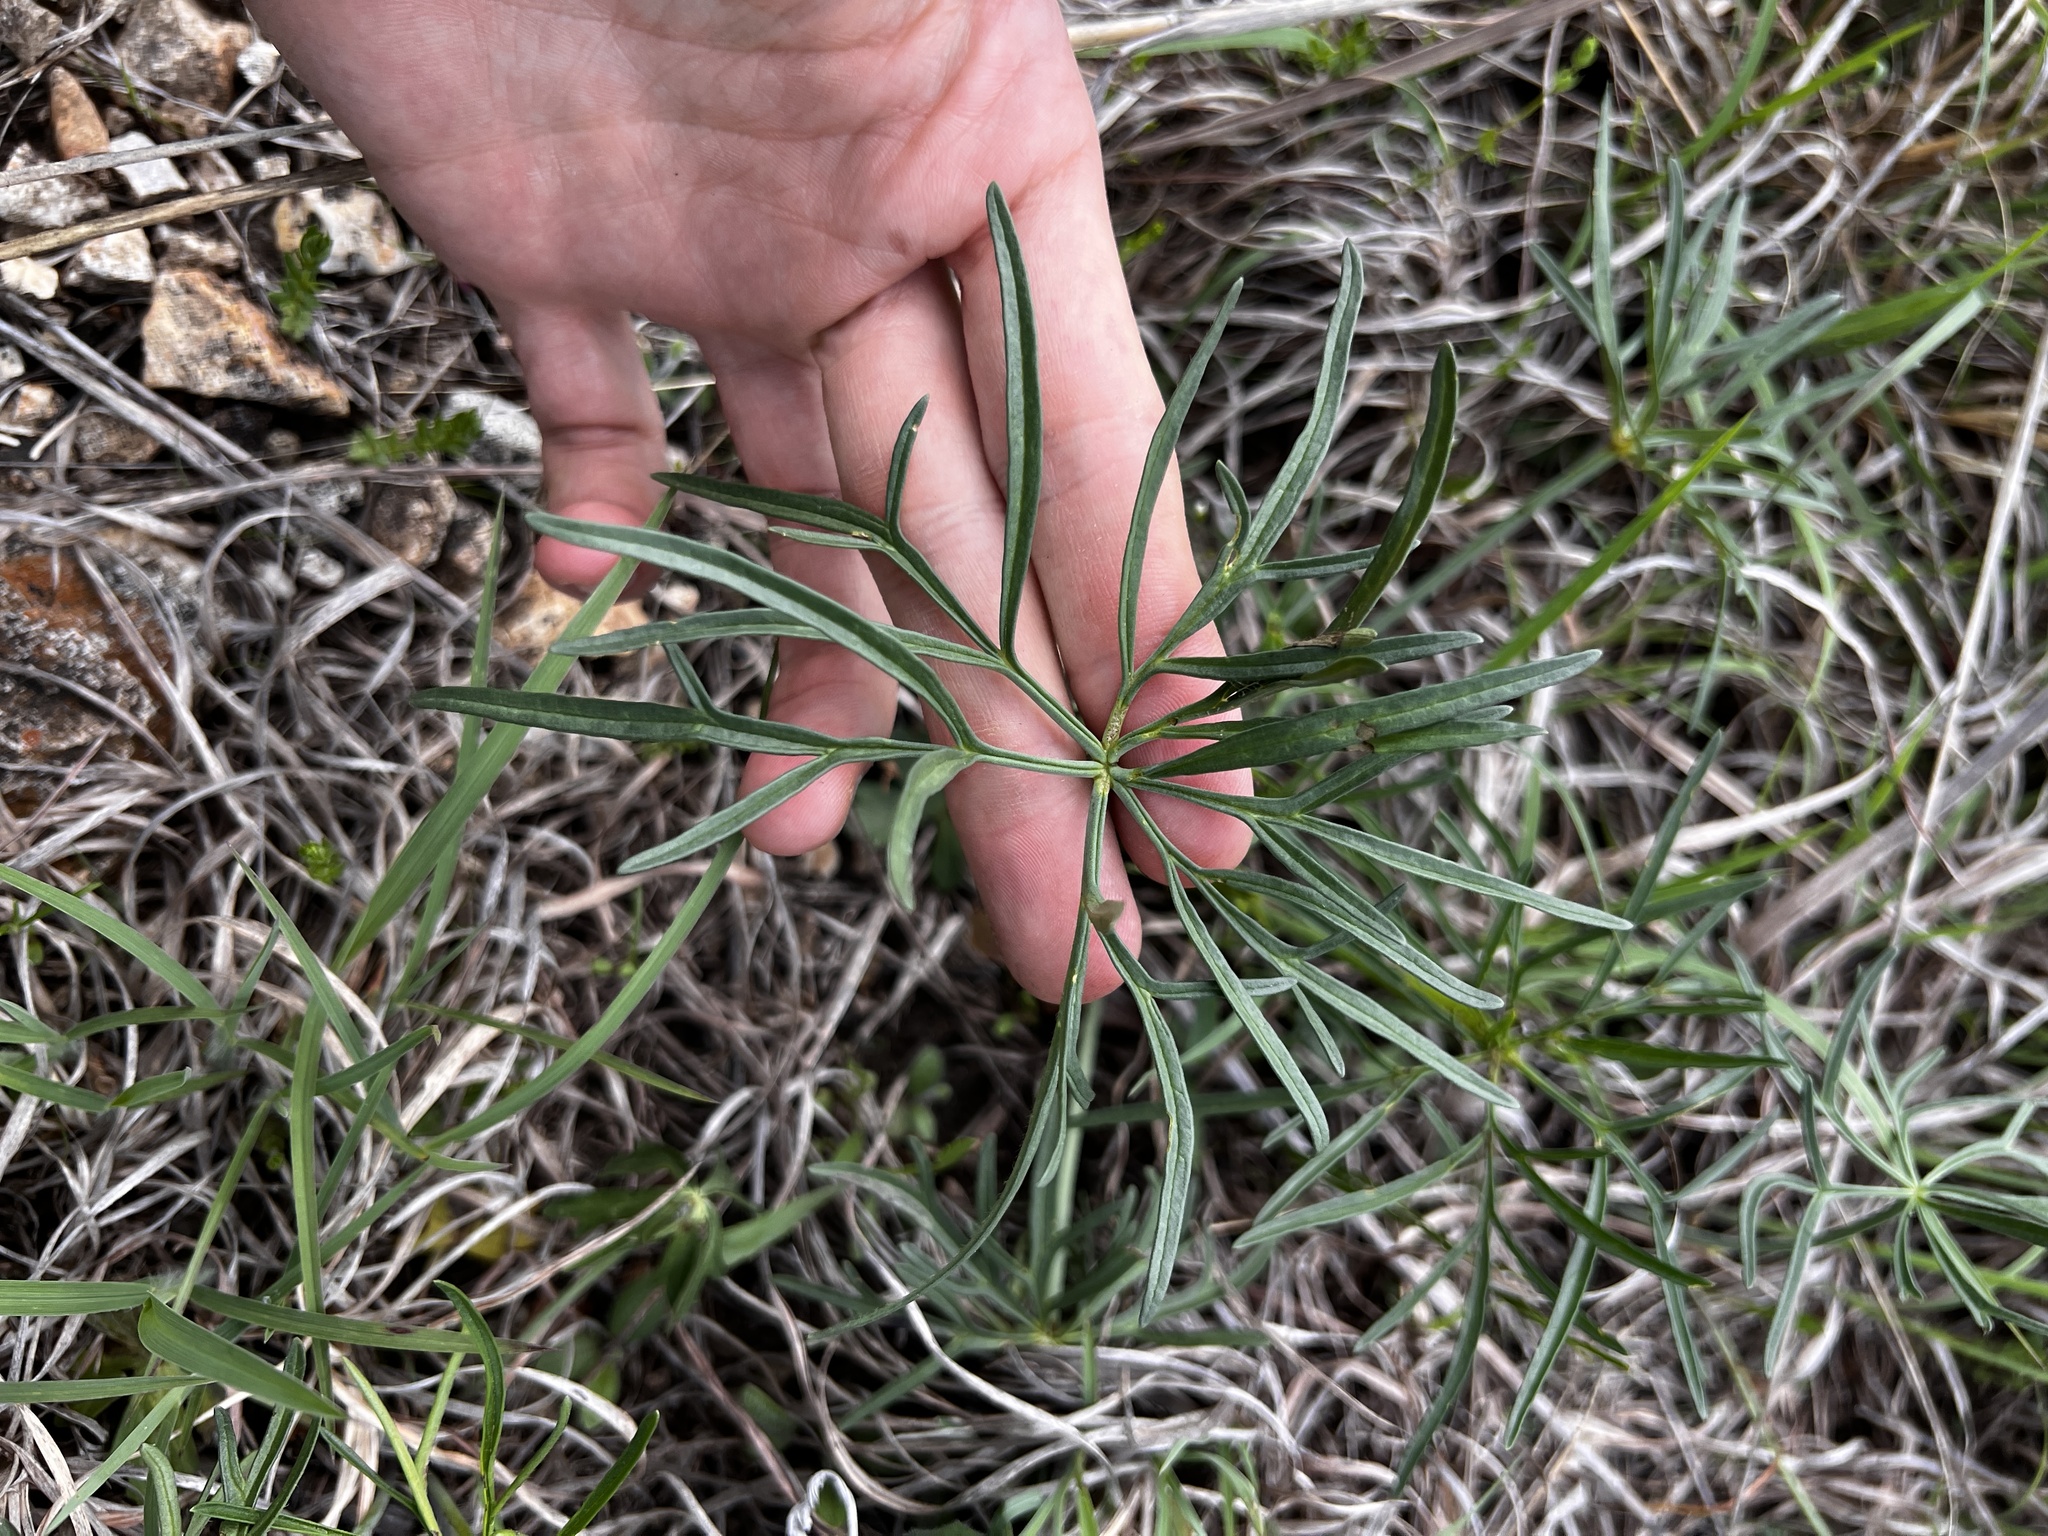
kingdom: Plantae
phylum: Tracheophyta
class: Magnoliopsida
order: Ranunculales
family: Ranunculaceae
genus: Delphinium
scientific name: Delphinium treleasei
